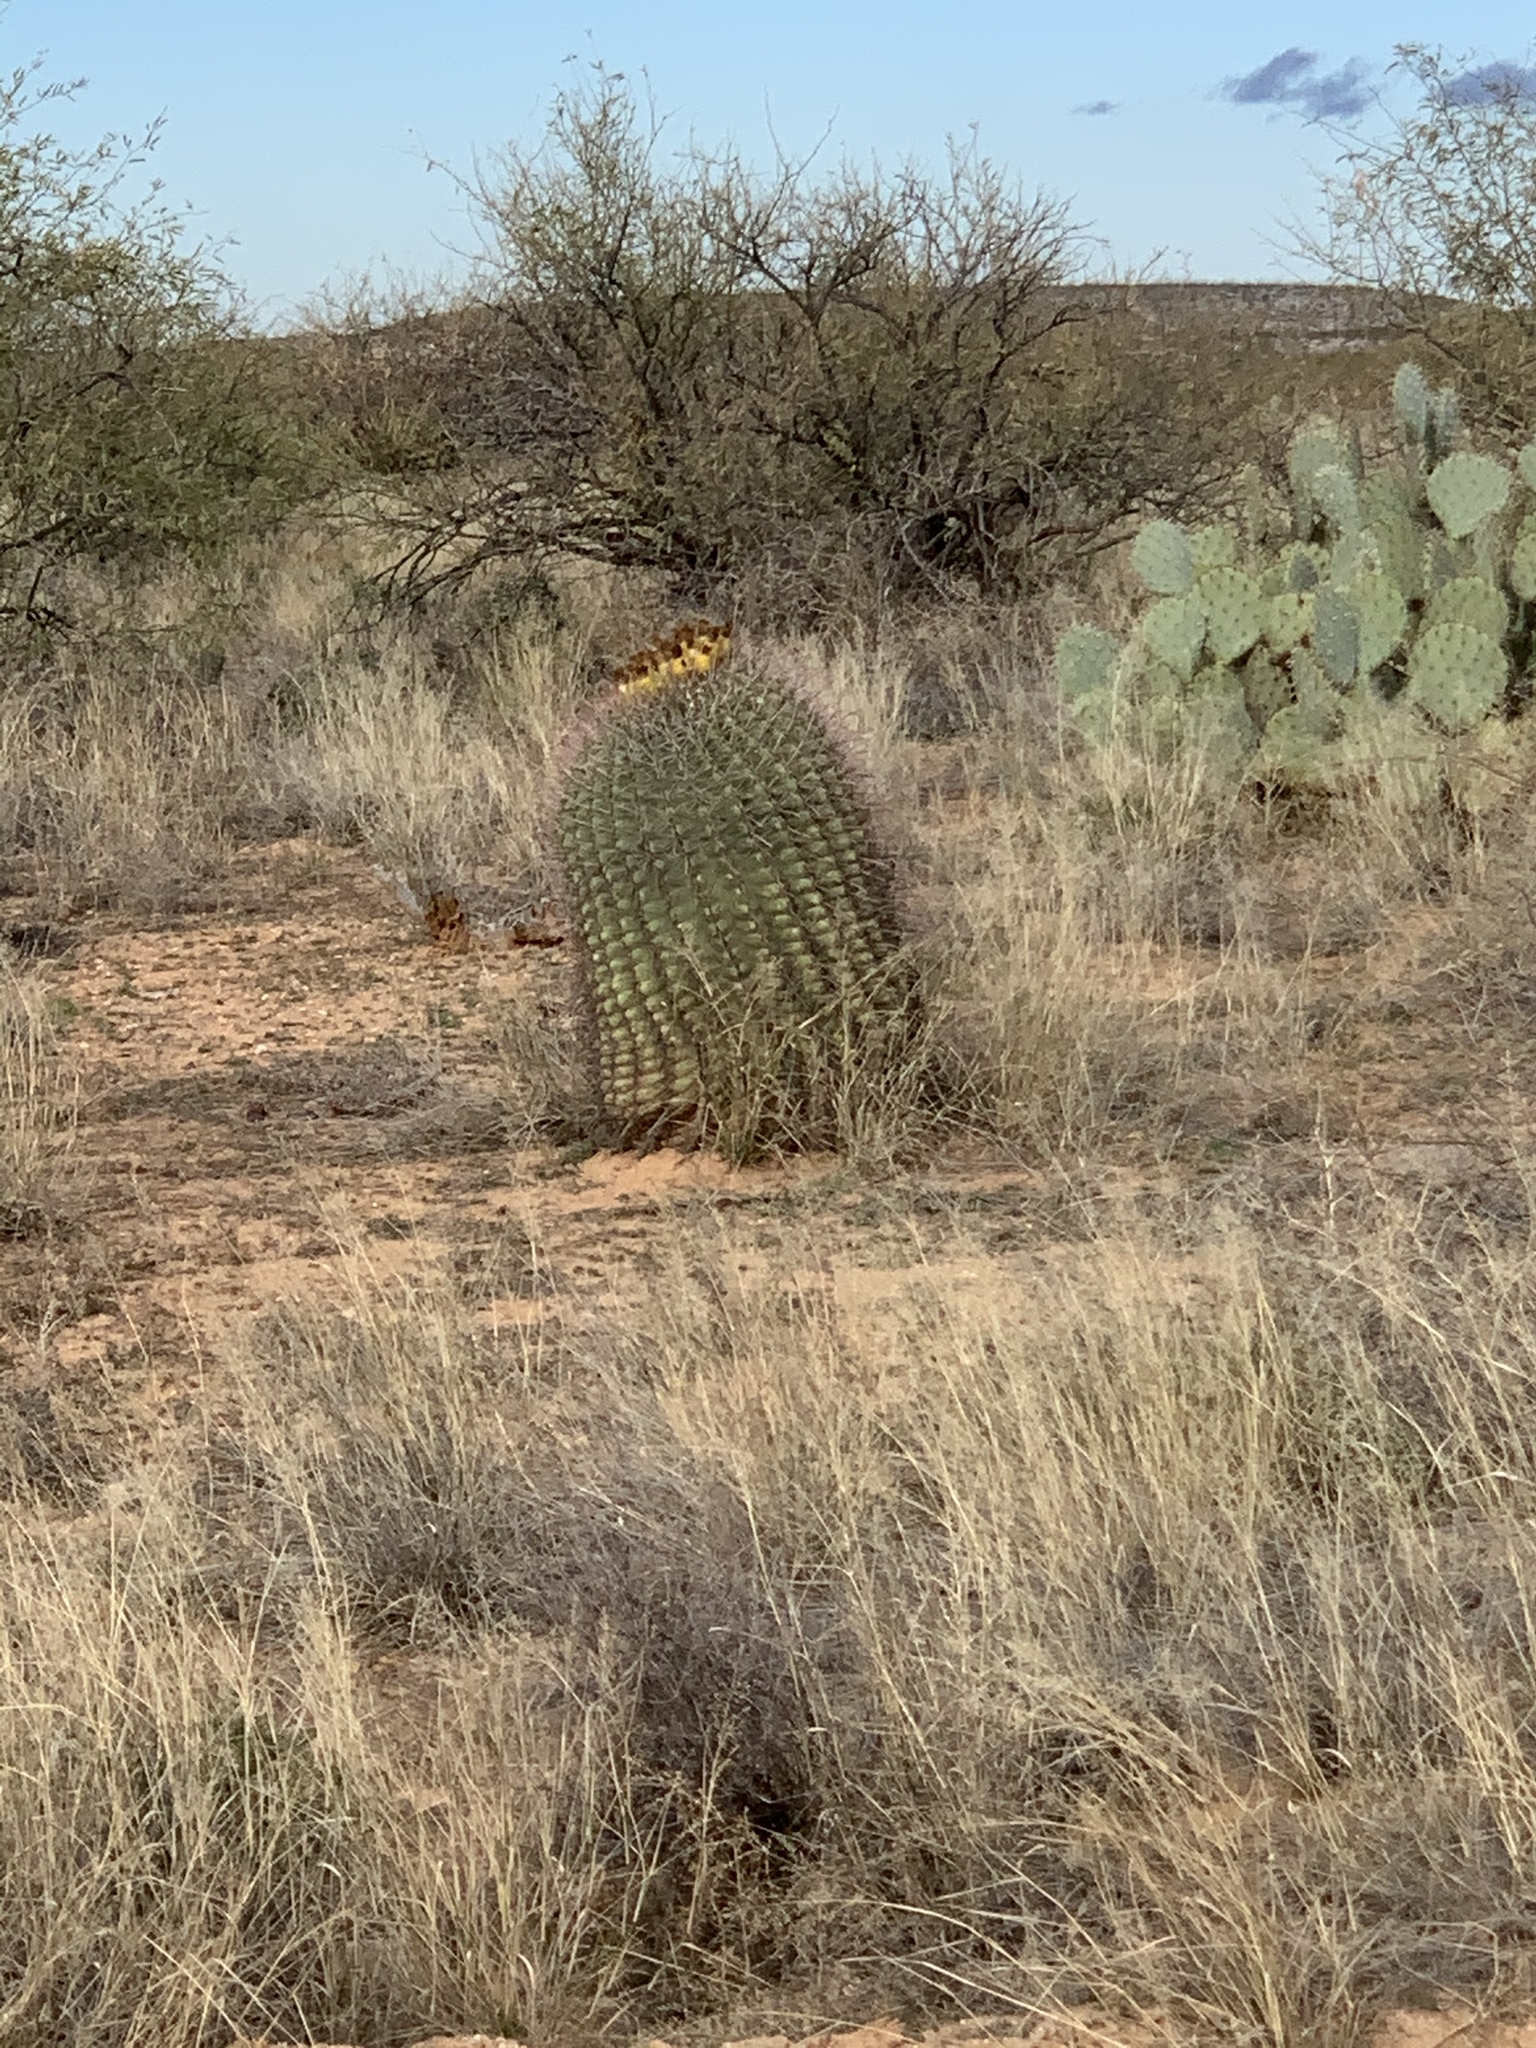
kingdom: Plantae
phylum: Tracheophyta
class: Magnoliopsida
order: Caryophyllales
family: Cactaceae
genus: Ferocactus
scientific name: Ferocactus wislizeni
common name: Candy barrel cactus
